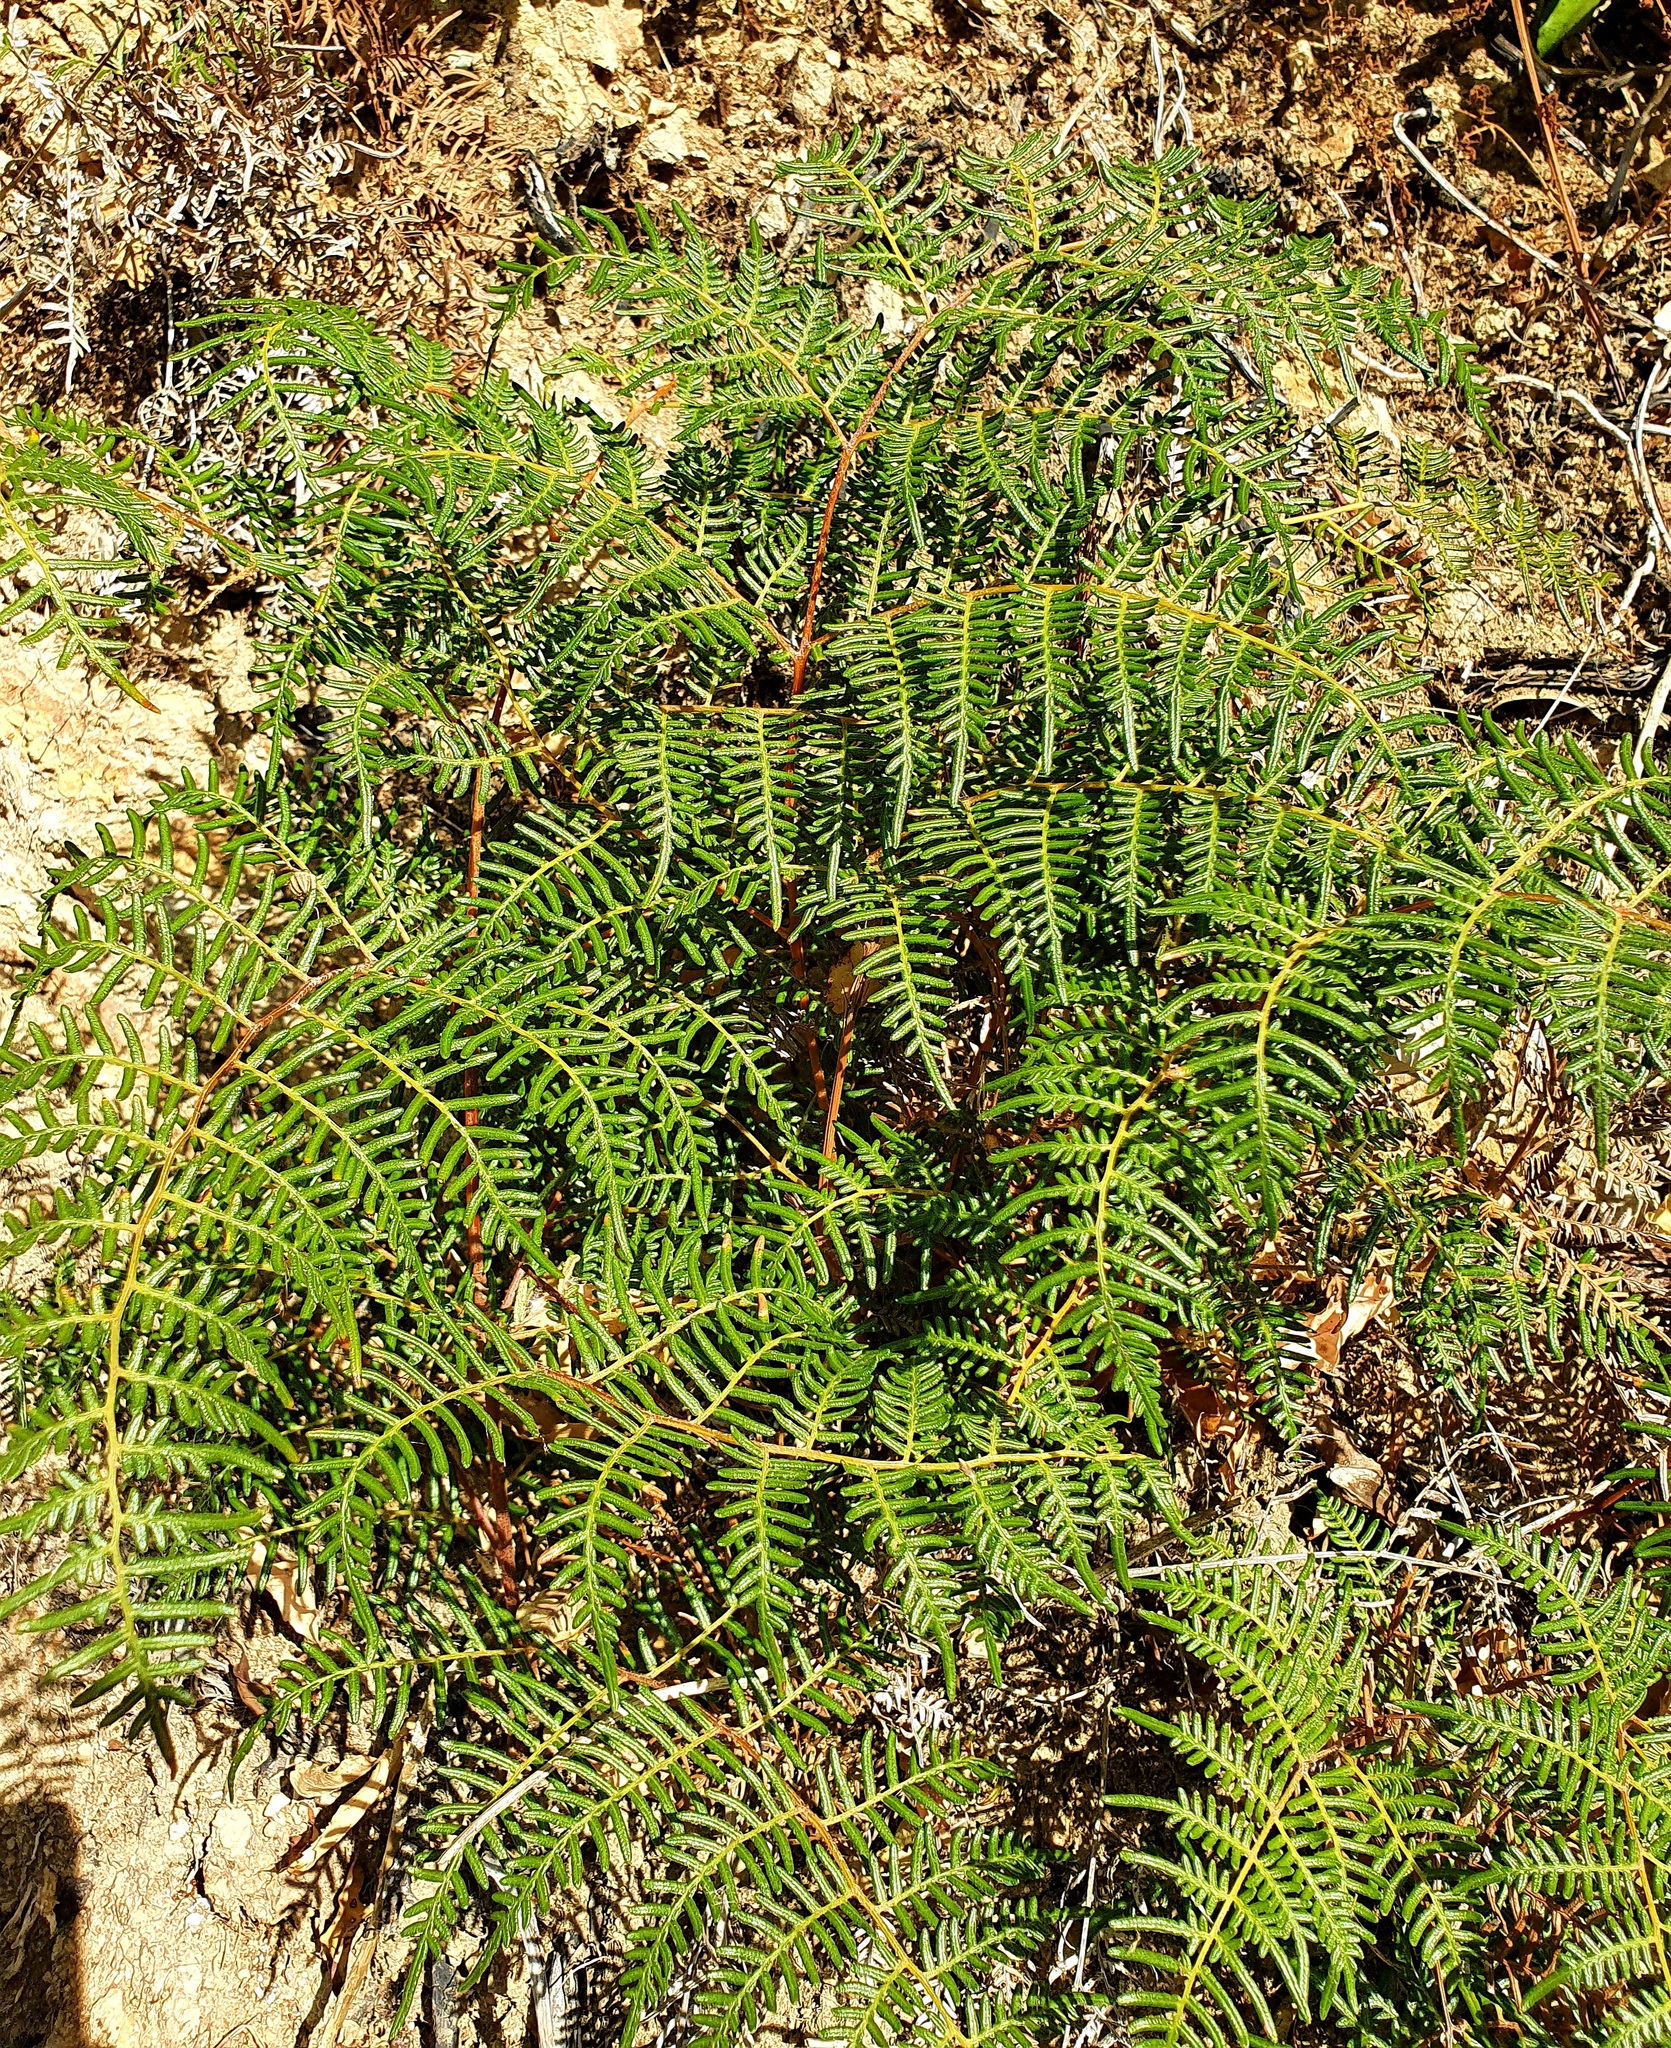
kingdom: Plantae
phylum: Tracheophyta
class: Polypodiopsida
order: Polypodiales
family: Dennstaedtiaceae
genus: Pteridium
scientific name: Pteridium esculentum
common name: Bracken fern
